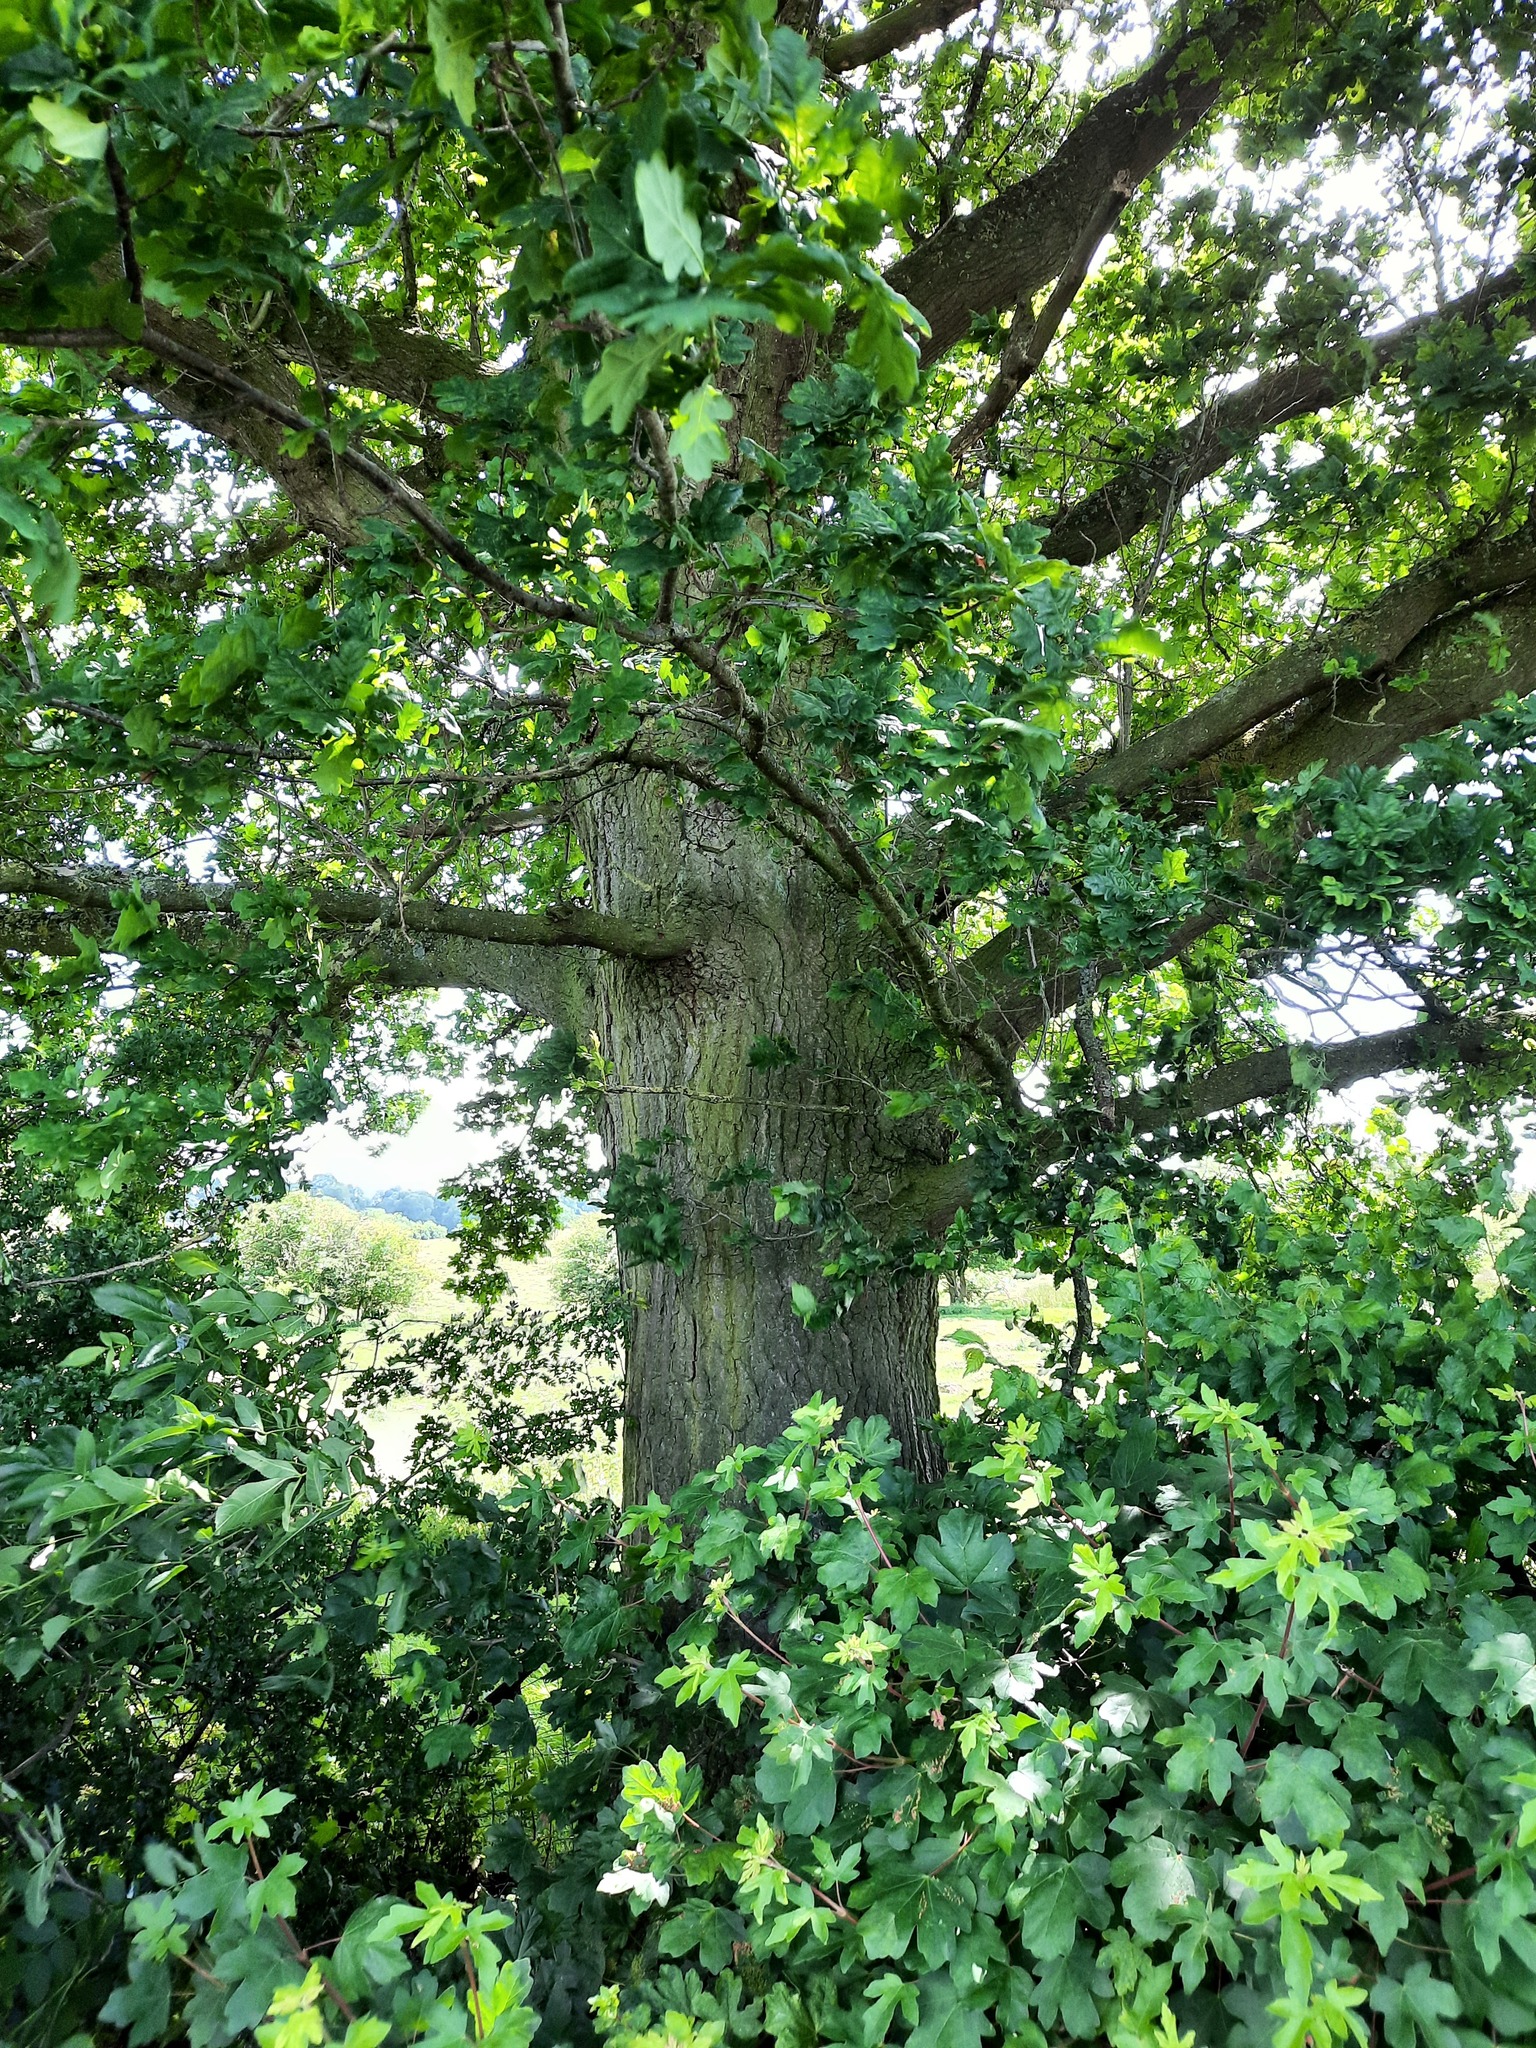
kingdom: Plantae
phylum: Tracheophyta
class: Magnoliopsida
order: Fagales
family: Fagaceae
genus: Quercus
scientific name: Quercus robur
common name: Pedunculate oak
